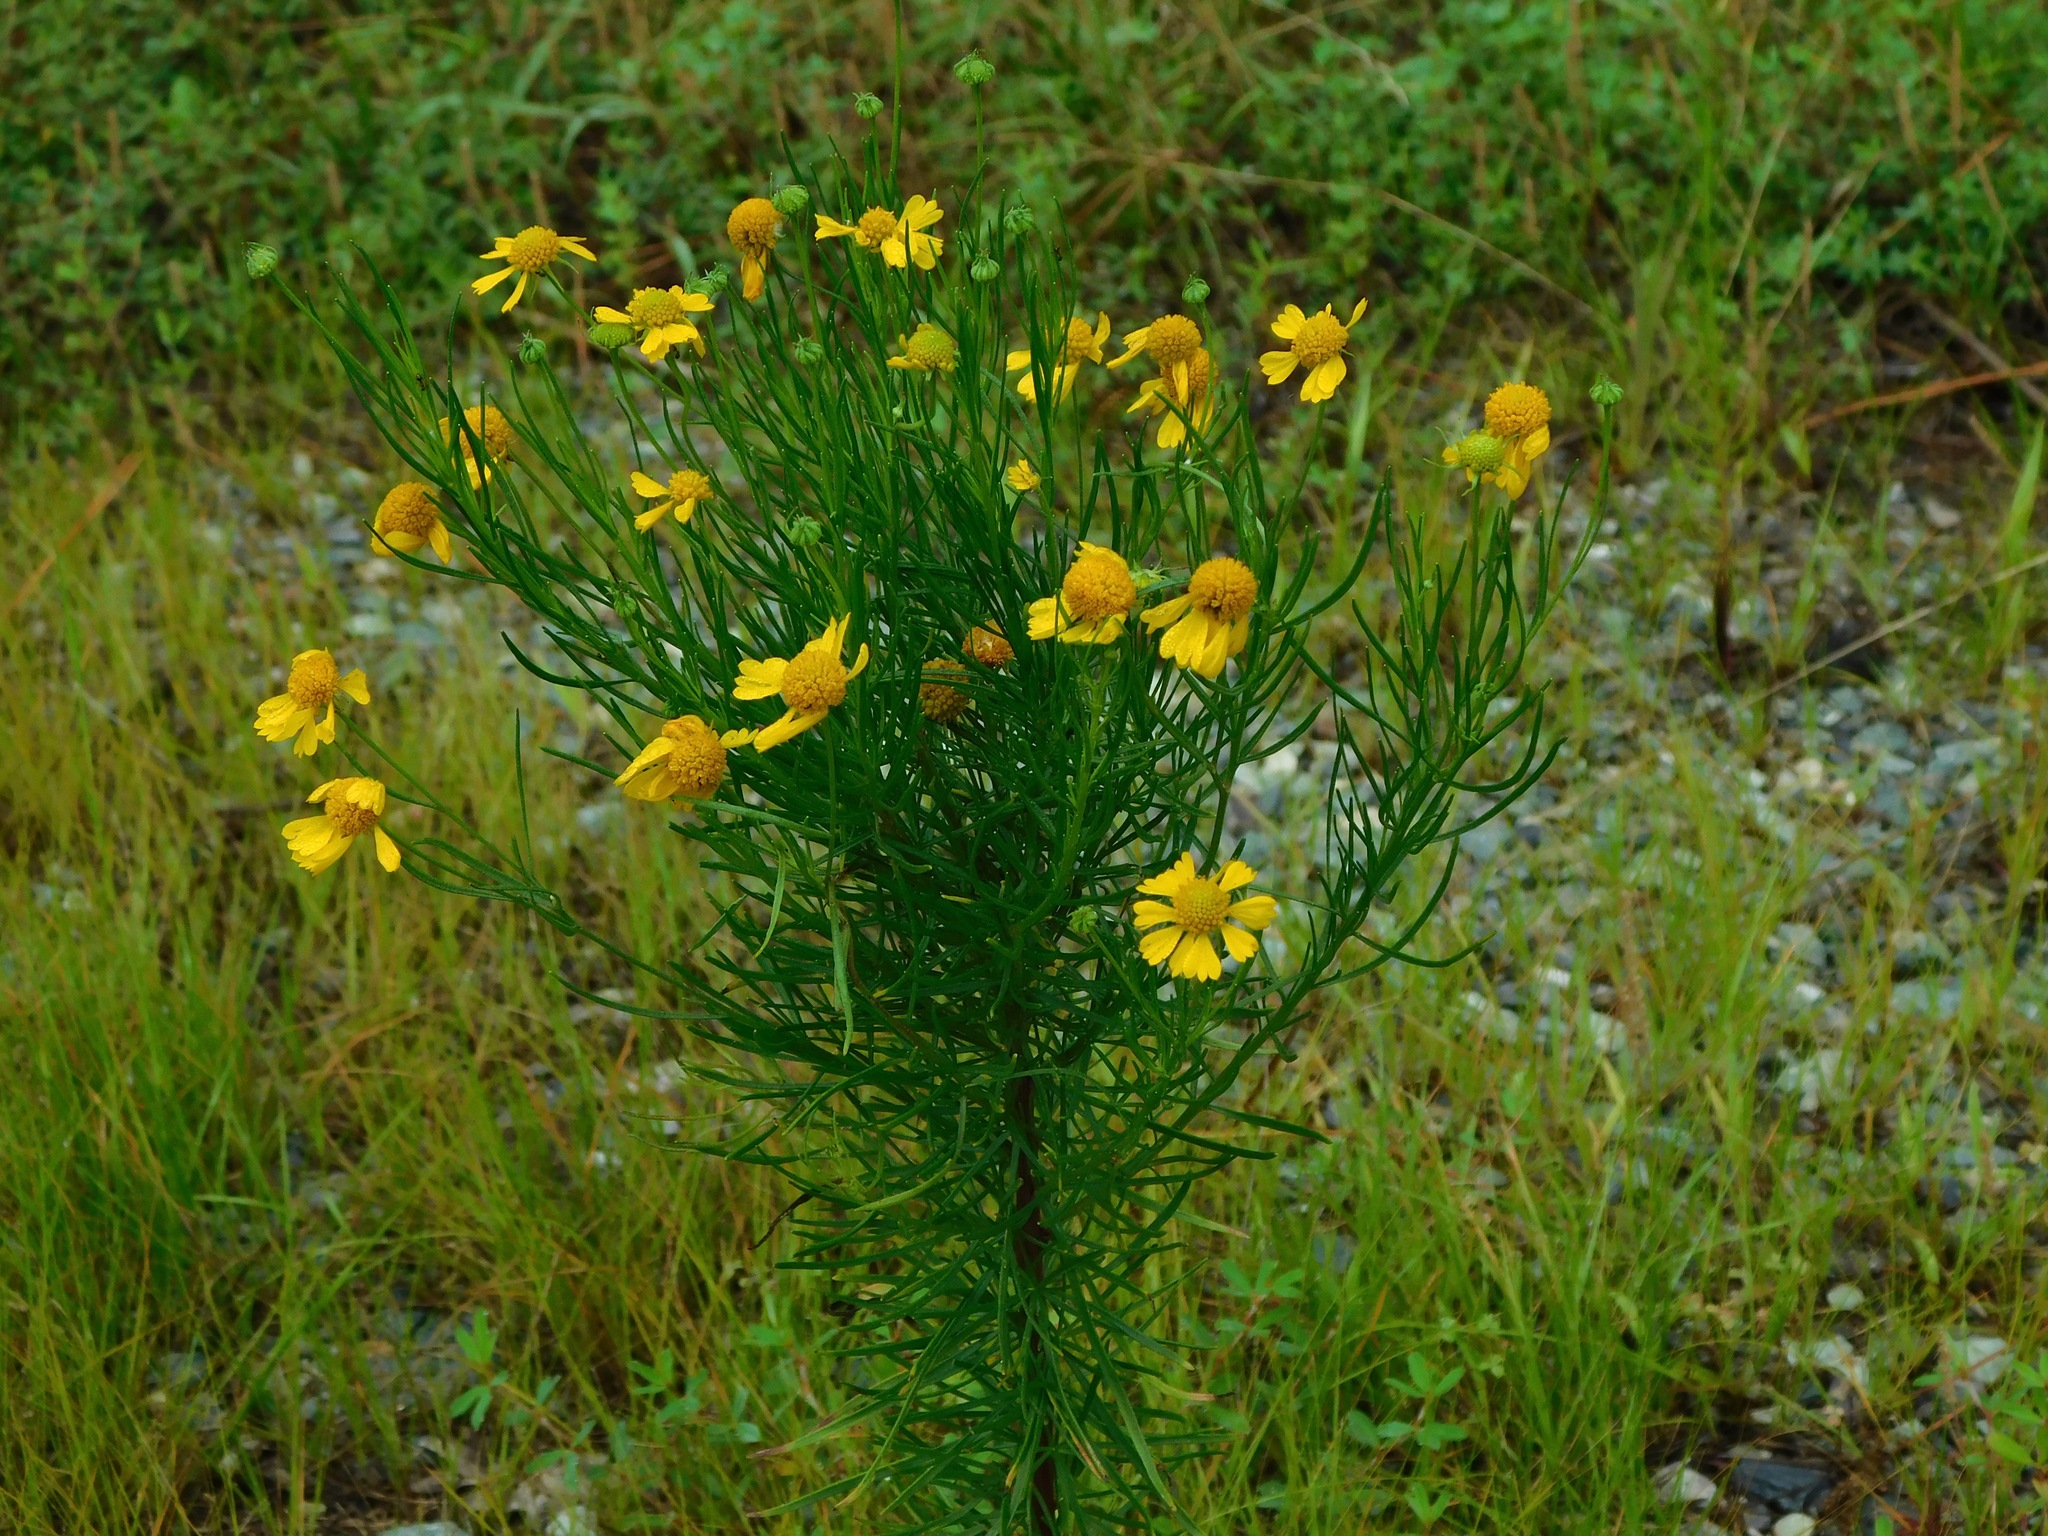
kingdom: Plantae
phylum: Tracheophyta
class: Magnoliopsida
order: Asterales
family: Asteraceae
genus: Helenium
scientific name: Helenium amarum
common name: Bitter sneezeweed
